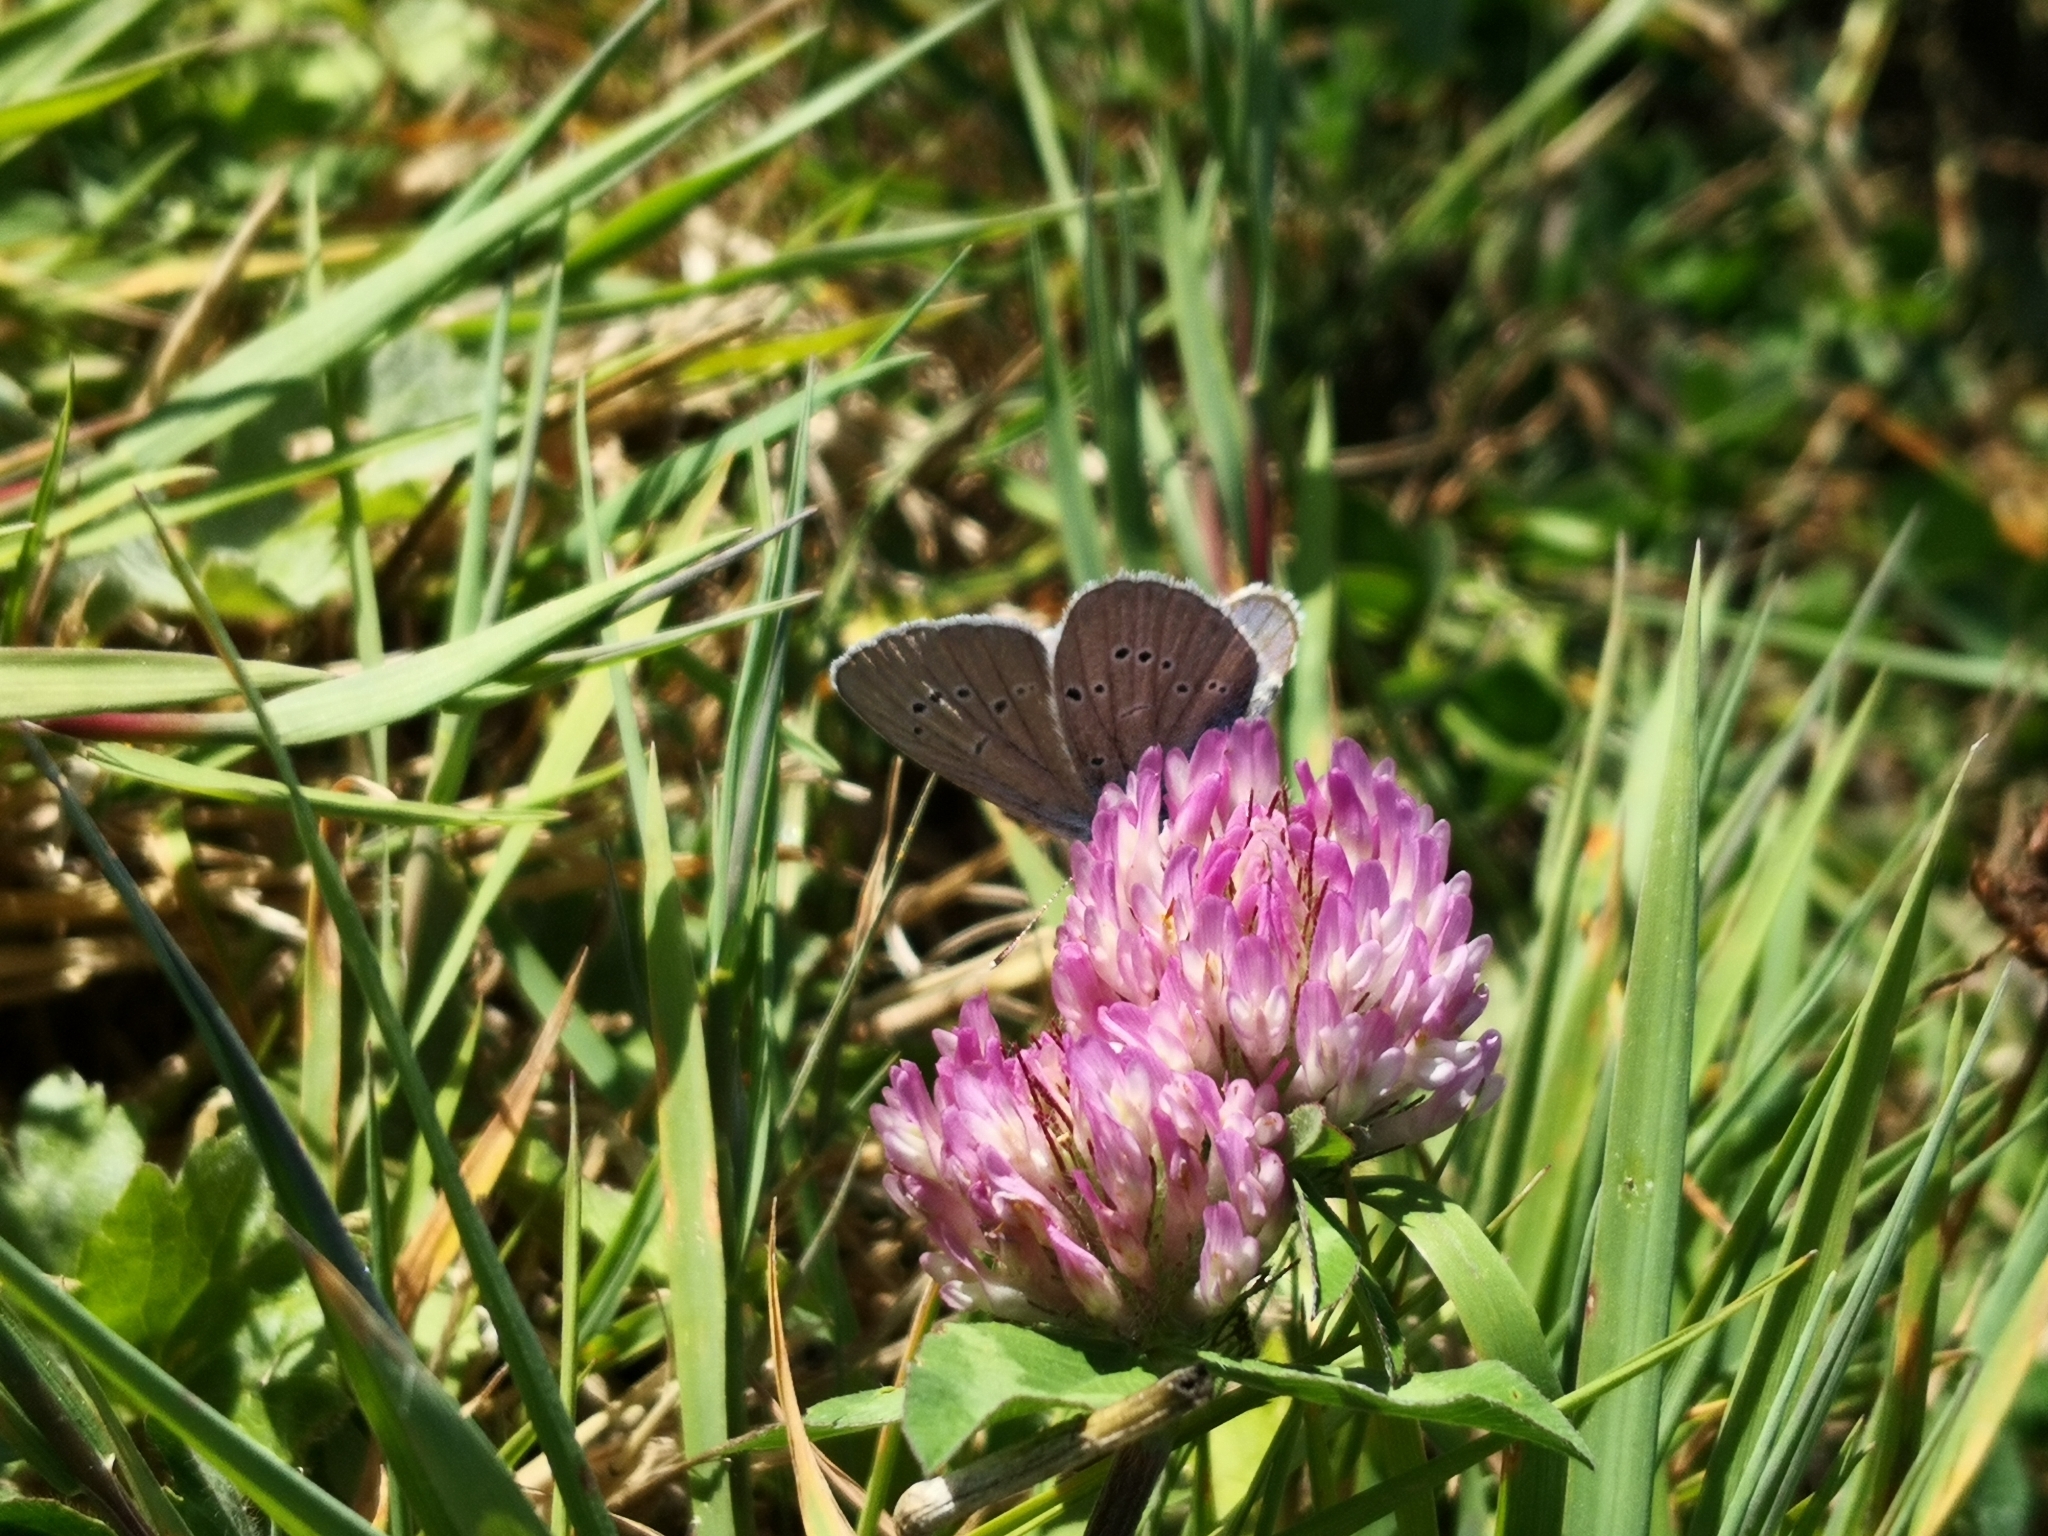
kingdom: Animalia
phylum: Arthropoda
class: Insecta
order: Lepidoptera
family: Lycaenidae
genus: Cyaniris
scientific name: Cyaniris semiargus
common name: Mazarine blue
